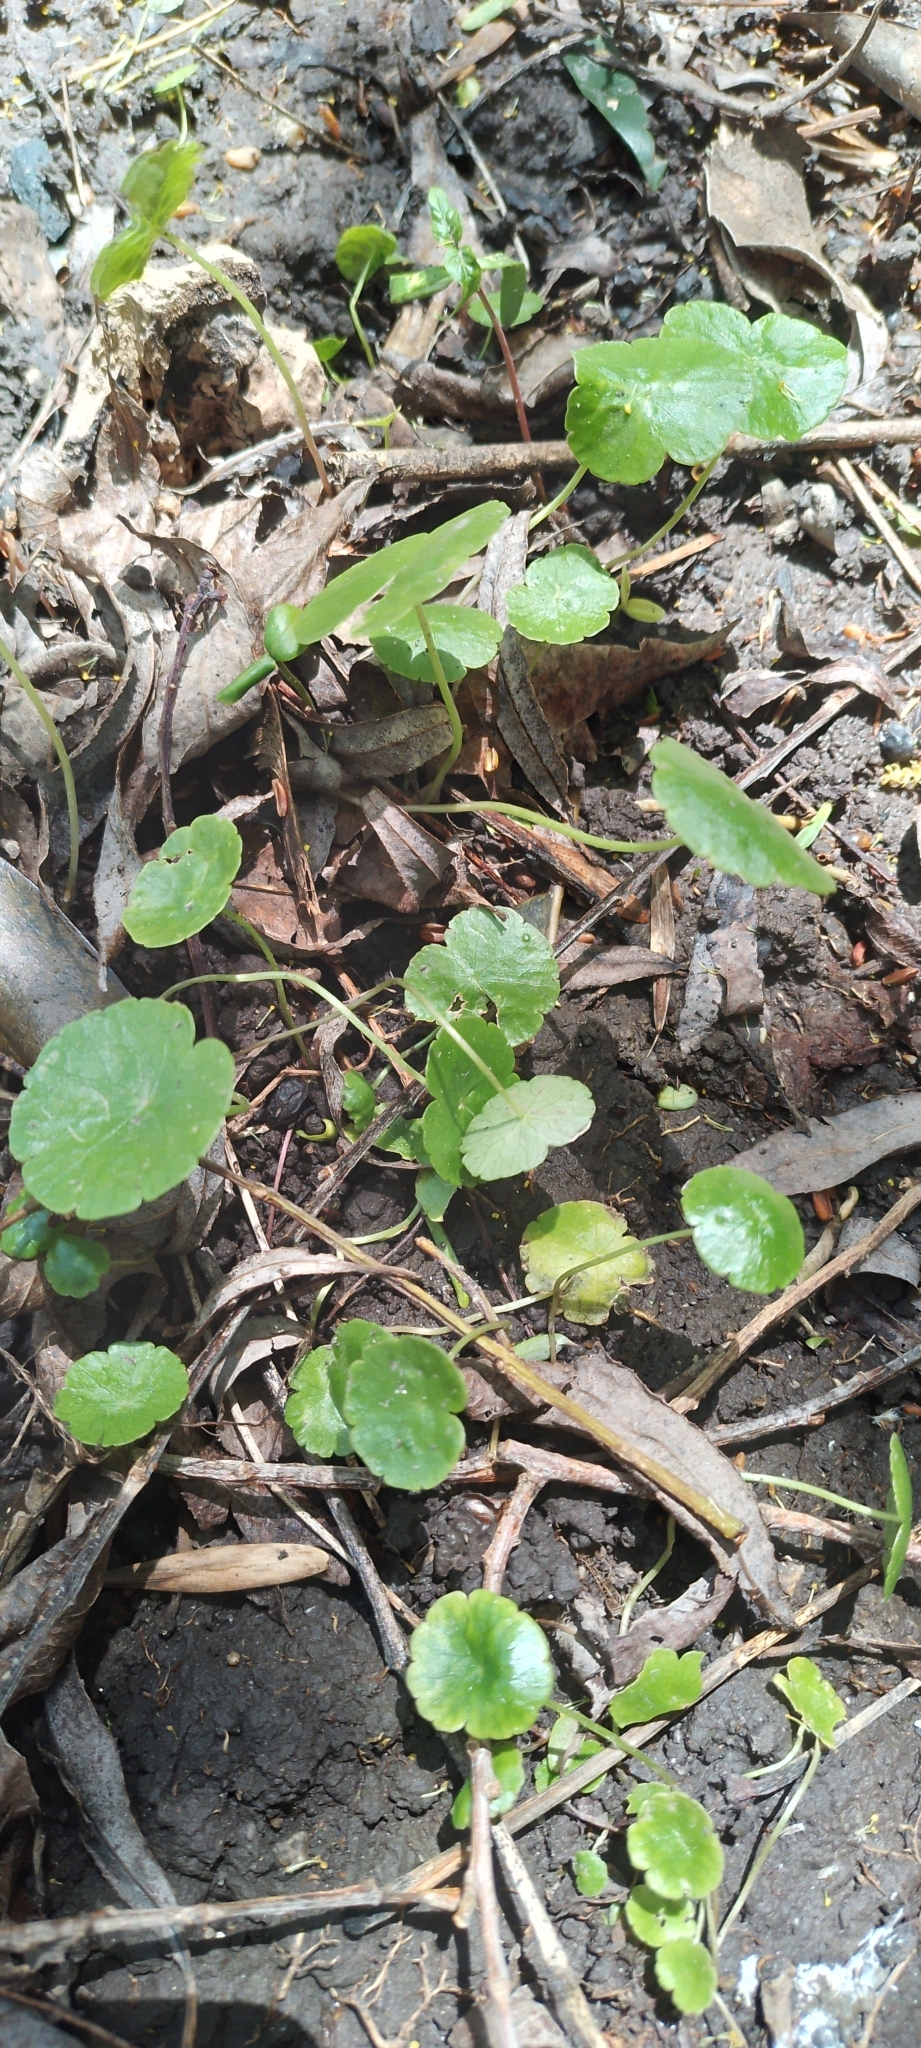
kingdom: Plantae
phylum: Tracheophyta
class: Magnoliopsida
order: Apiales
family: Araliaceae
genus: Hydrocotyle
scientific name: Hydrocotyle bonariensis
